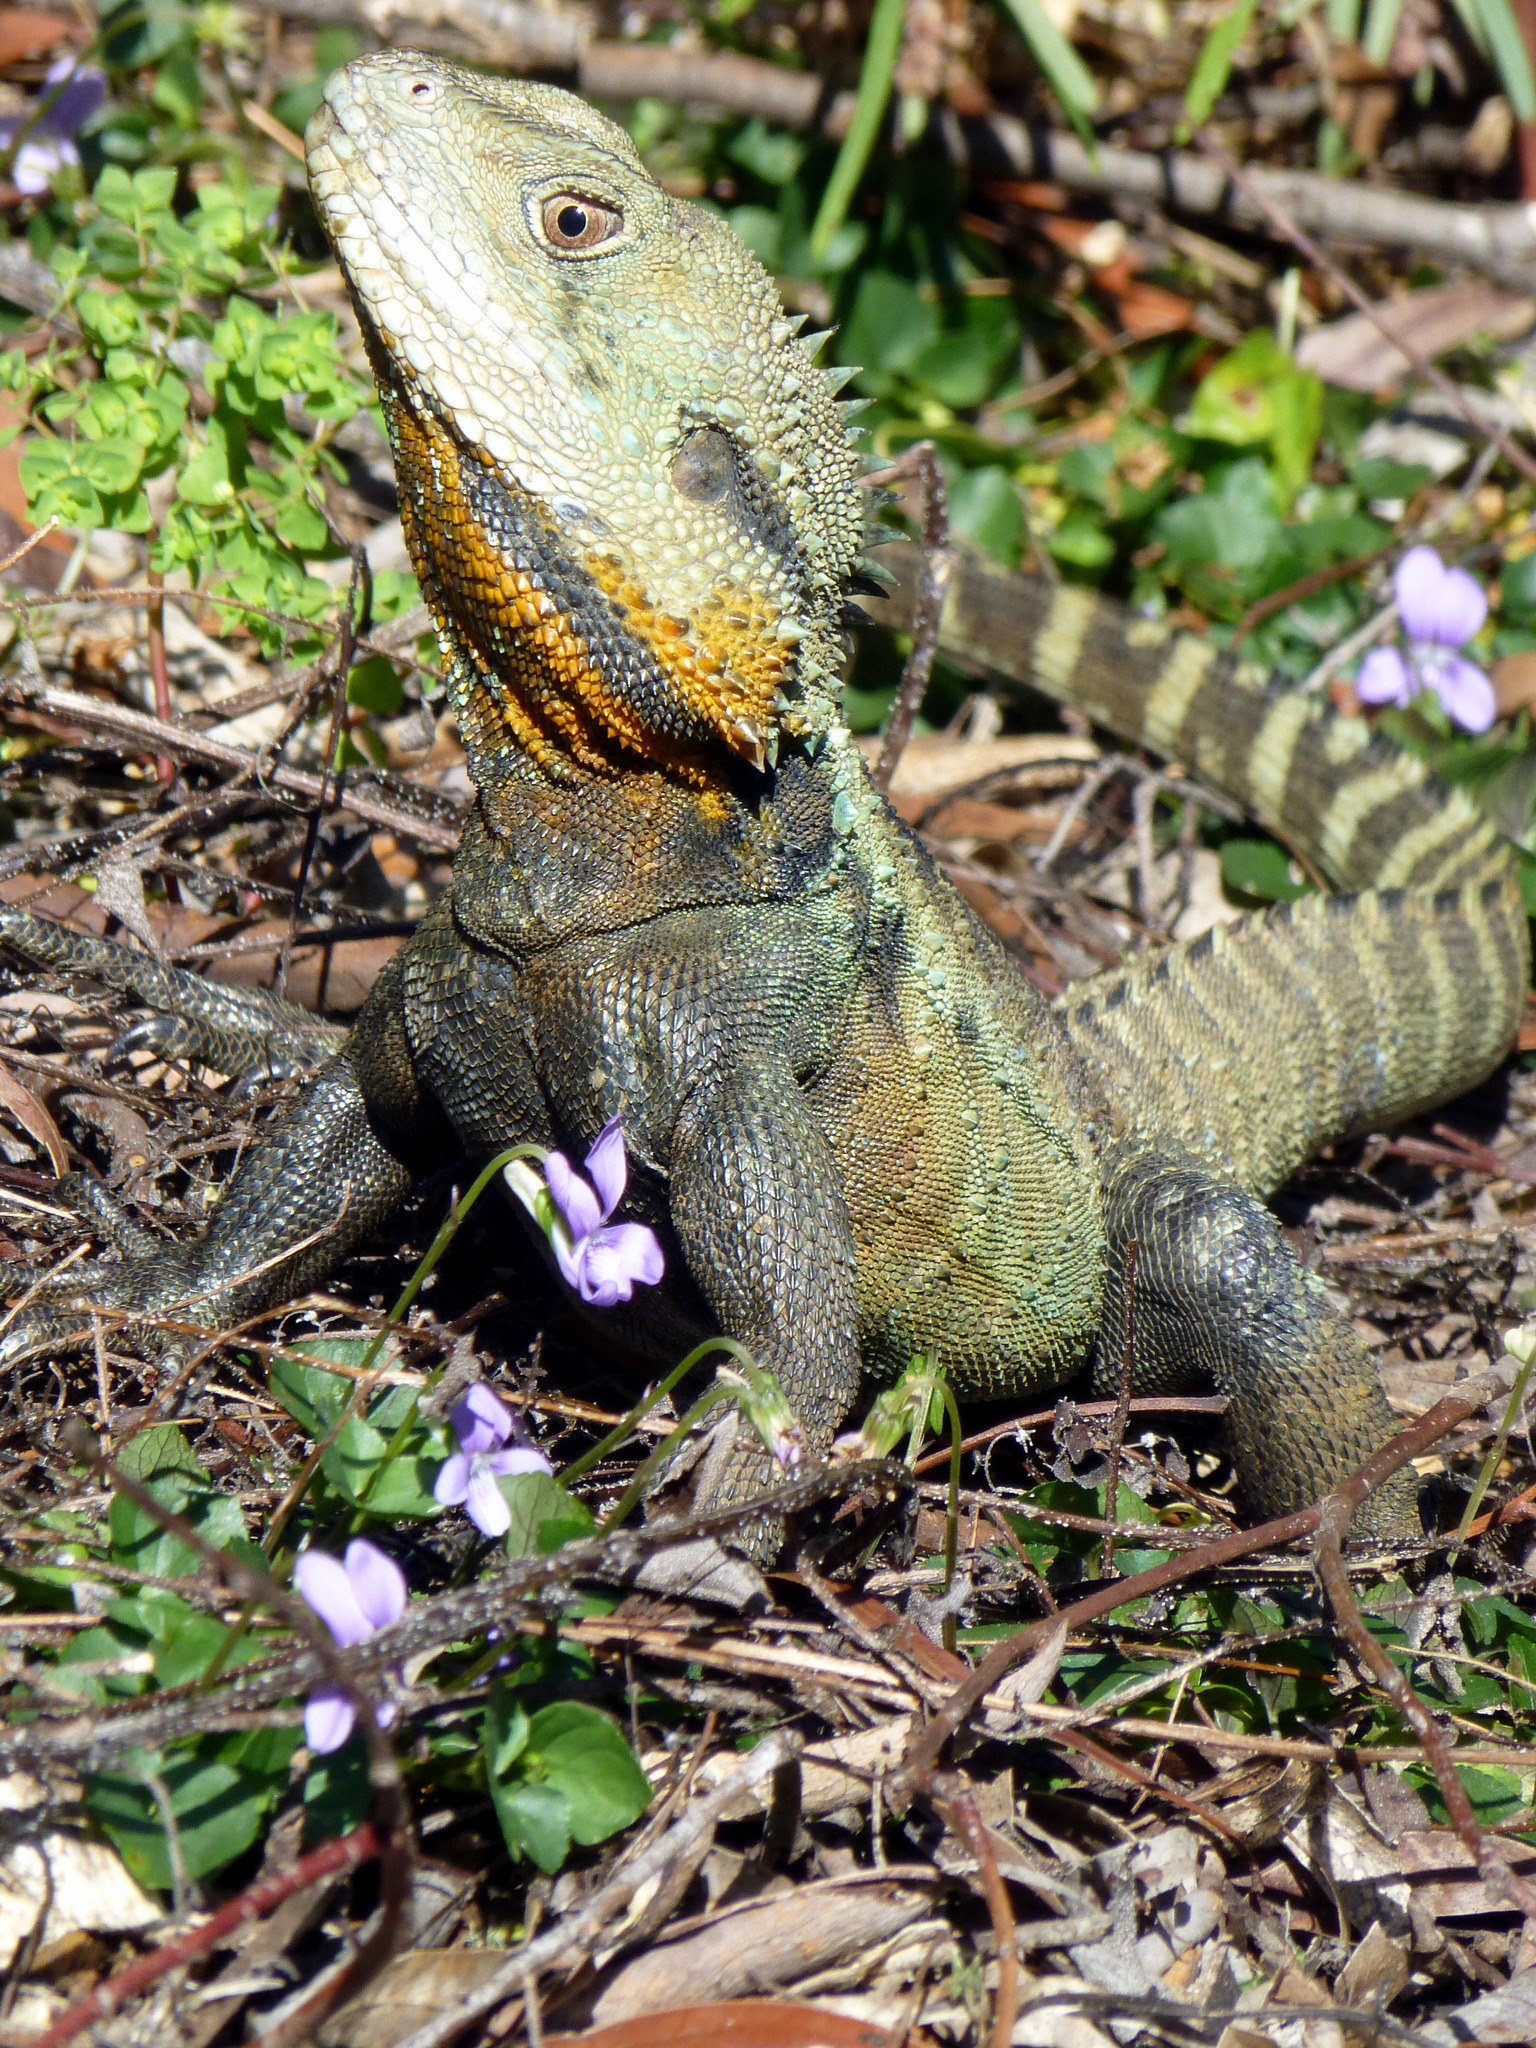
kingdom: Animalia
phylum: Chordata
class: Squamata
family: Agamidae
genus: Intellagama
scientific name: Intellagama lesueurii
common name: Eastern water dragon
